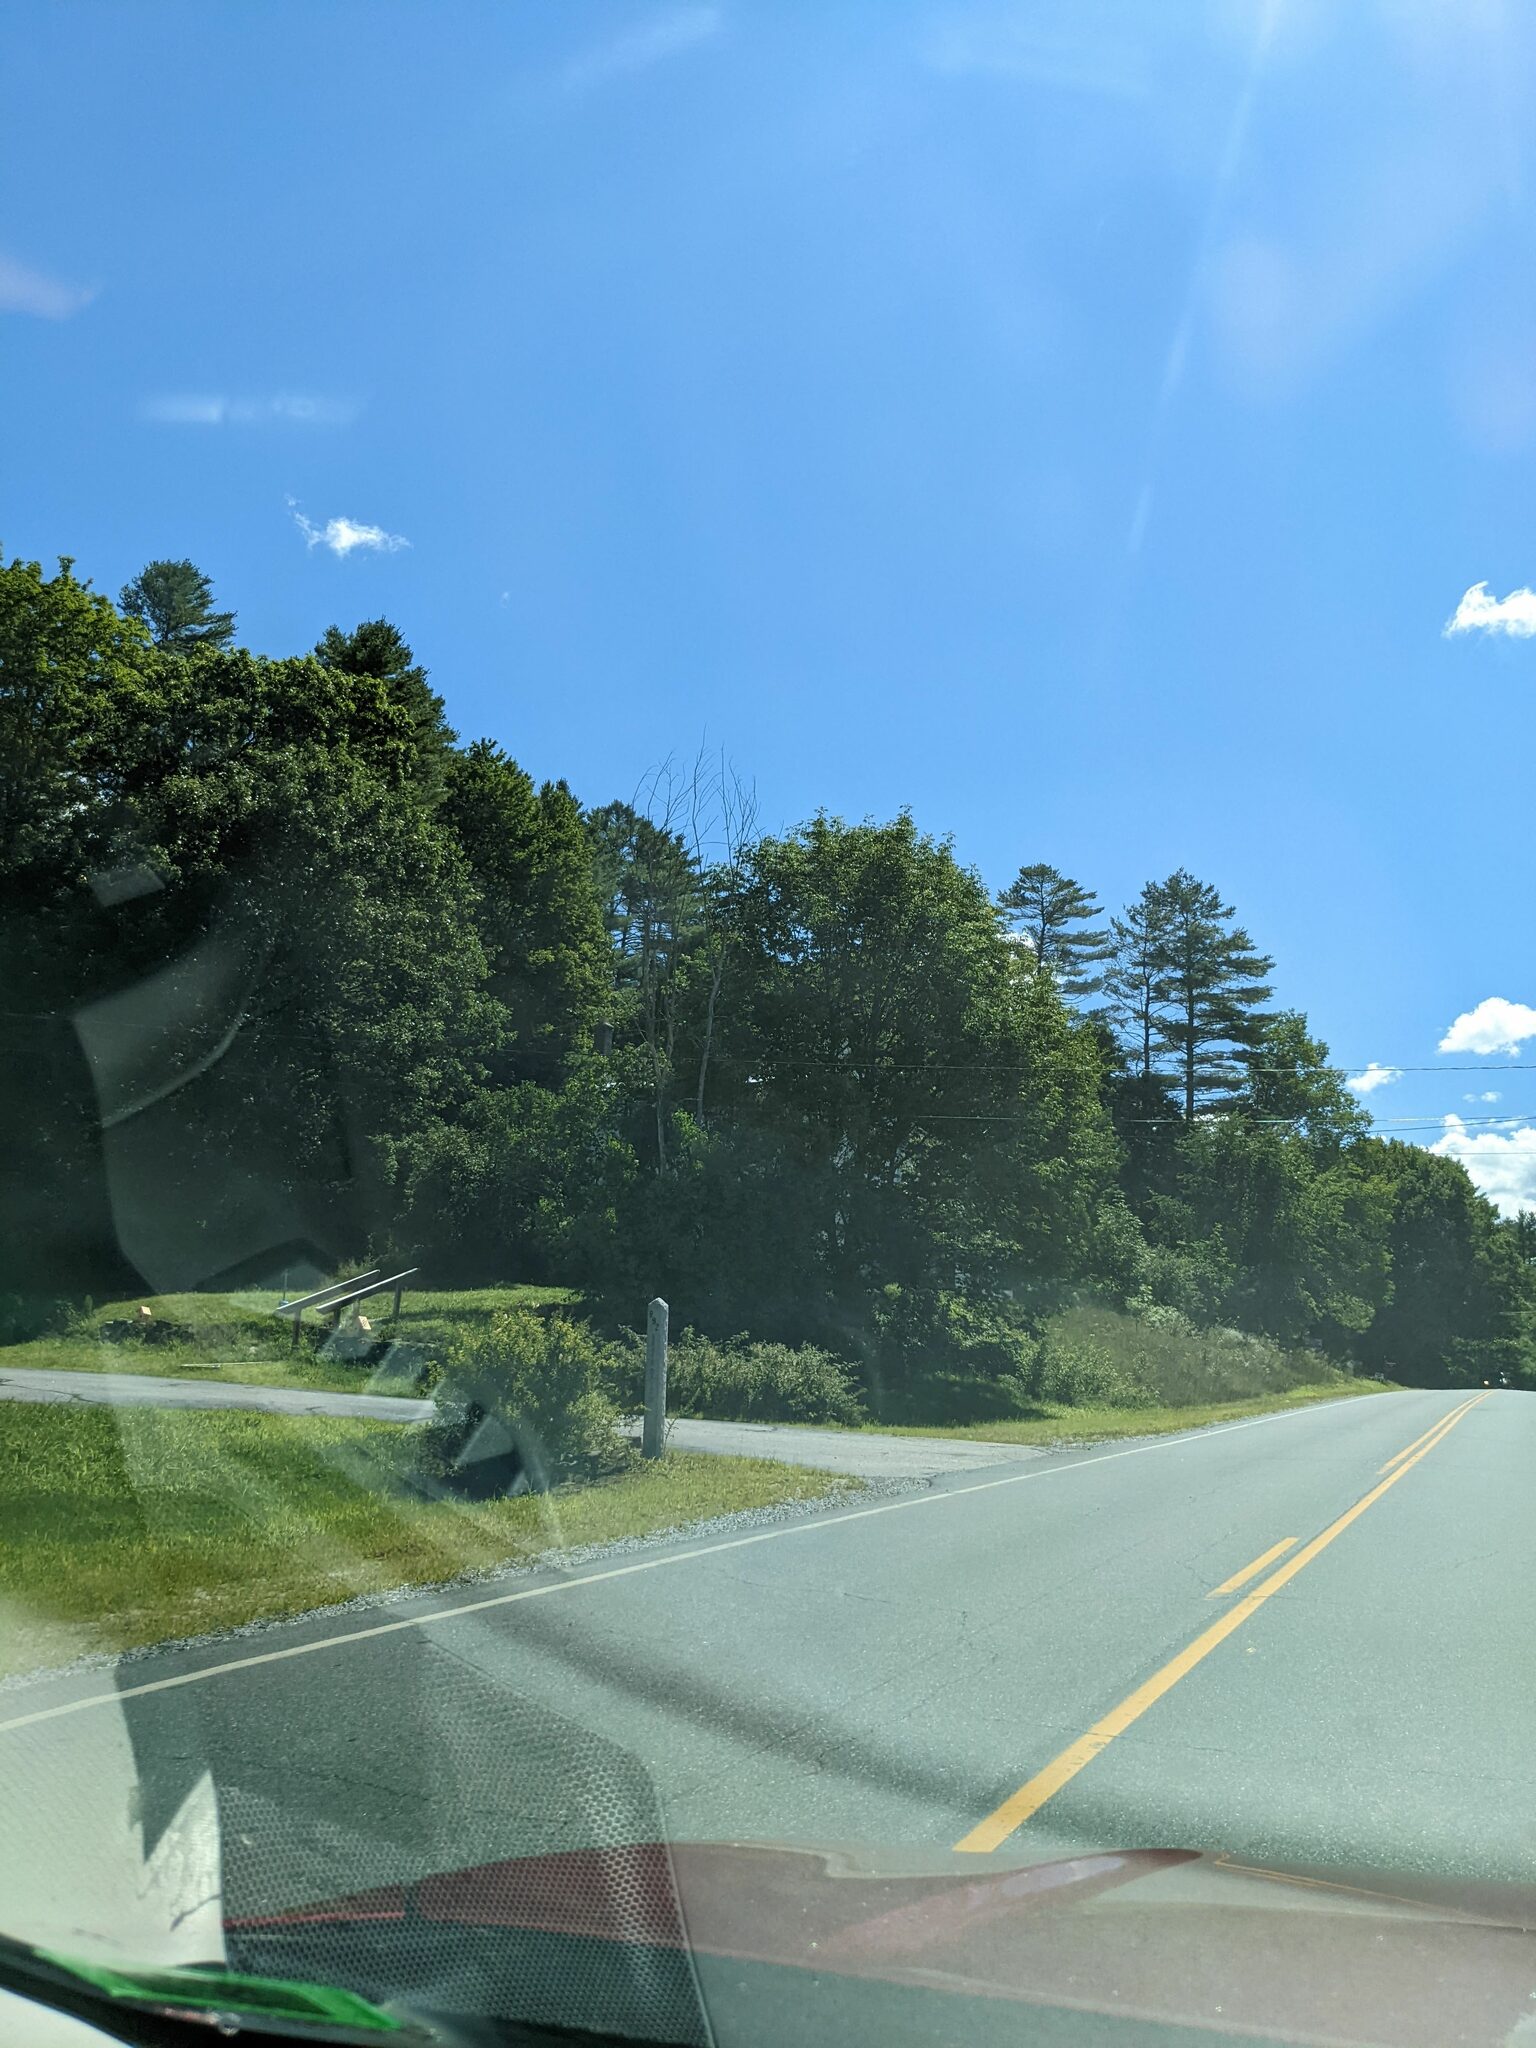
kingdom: Plantae
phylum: Tracheophyta
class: Pinopsida
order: Pinales
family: Pinaceae
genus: Pinus
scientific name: Pinus strobus
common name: Weymouth pine
